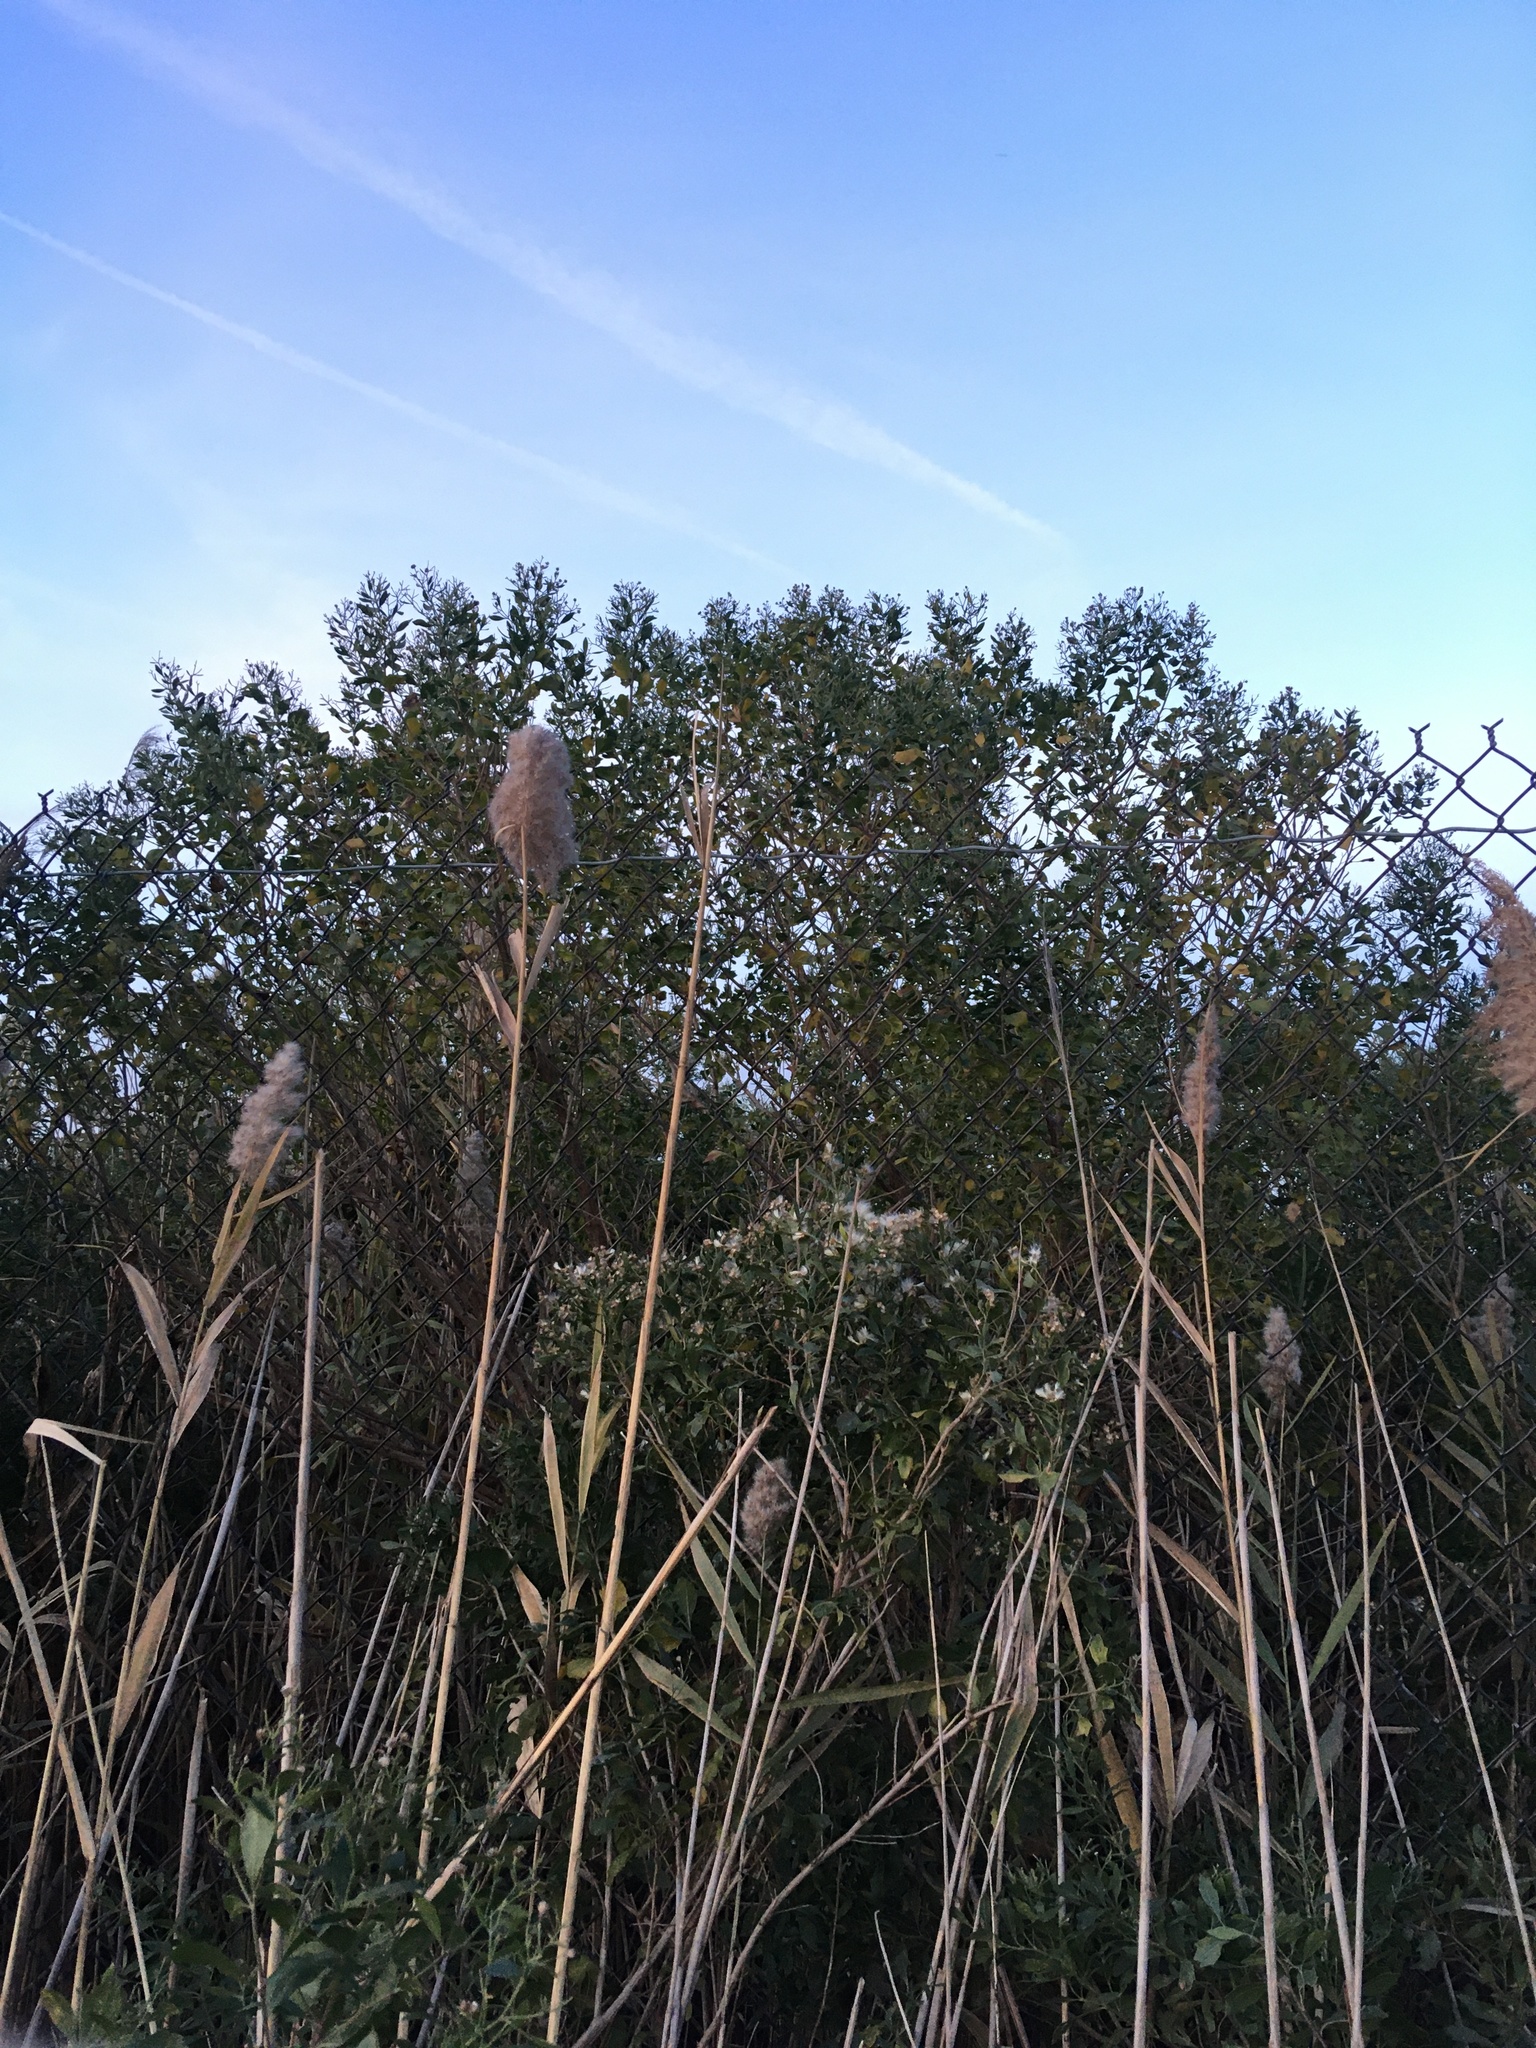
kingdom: Plantae
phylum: Tracheophyta
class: Magnoliopsida
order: Asterales
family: Asteraceae
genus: Baccharis
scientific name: Baccharis halimifolia
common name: Eastern baccharis
